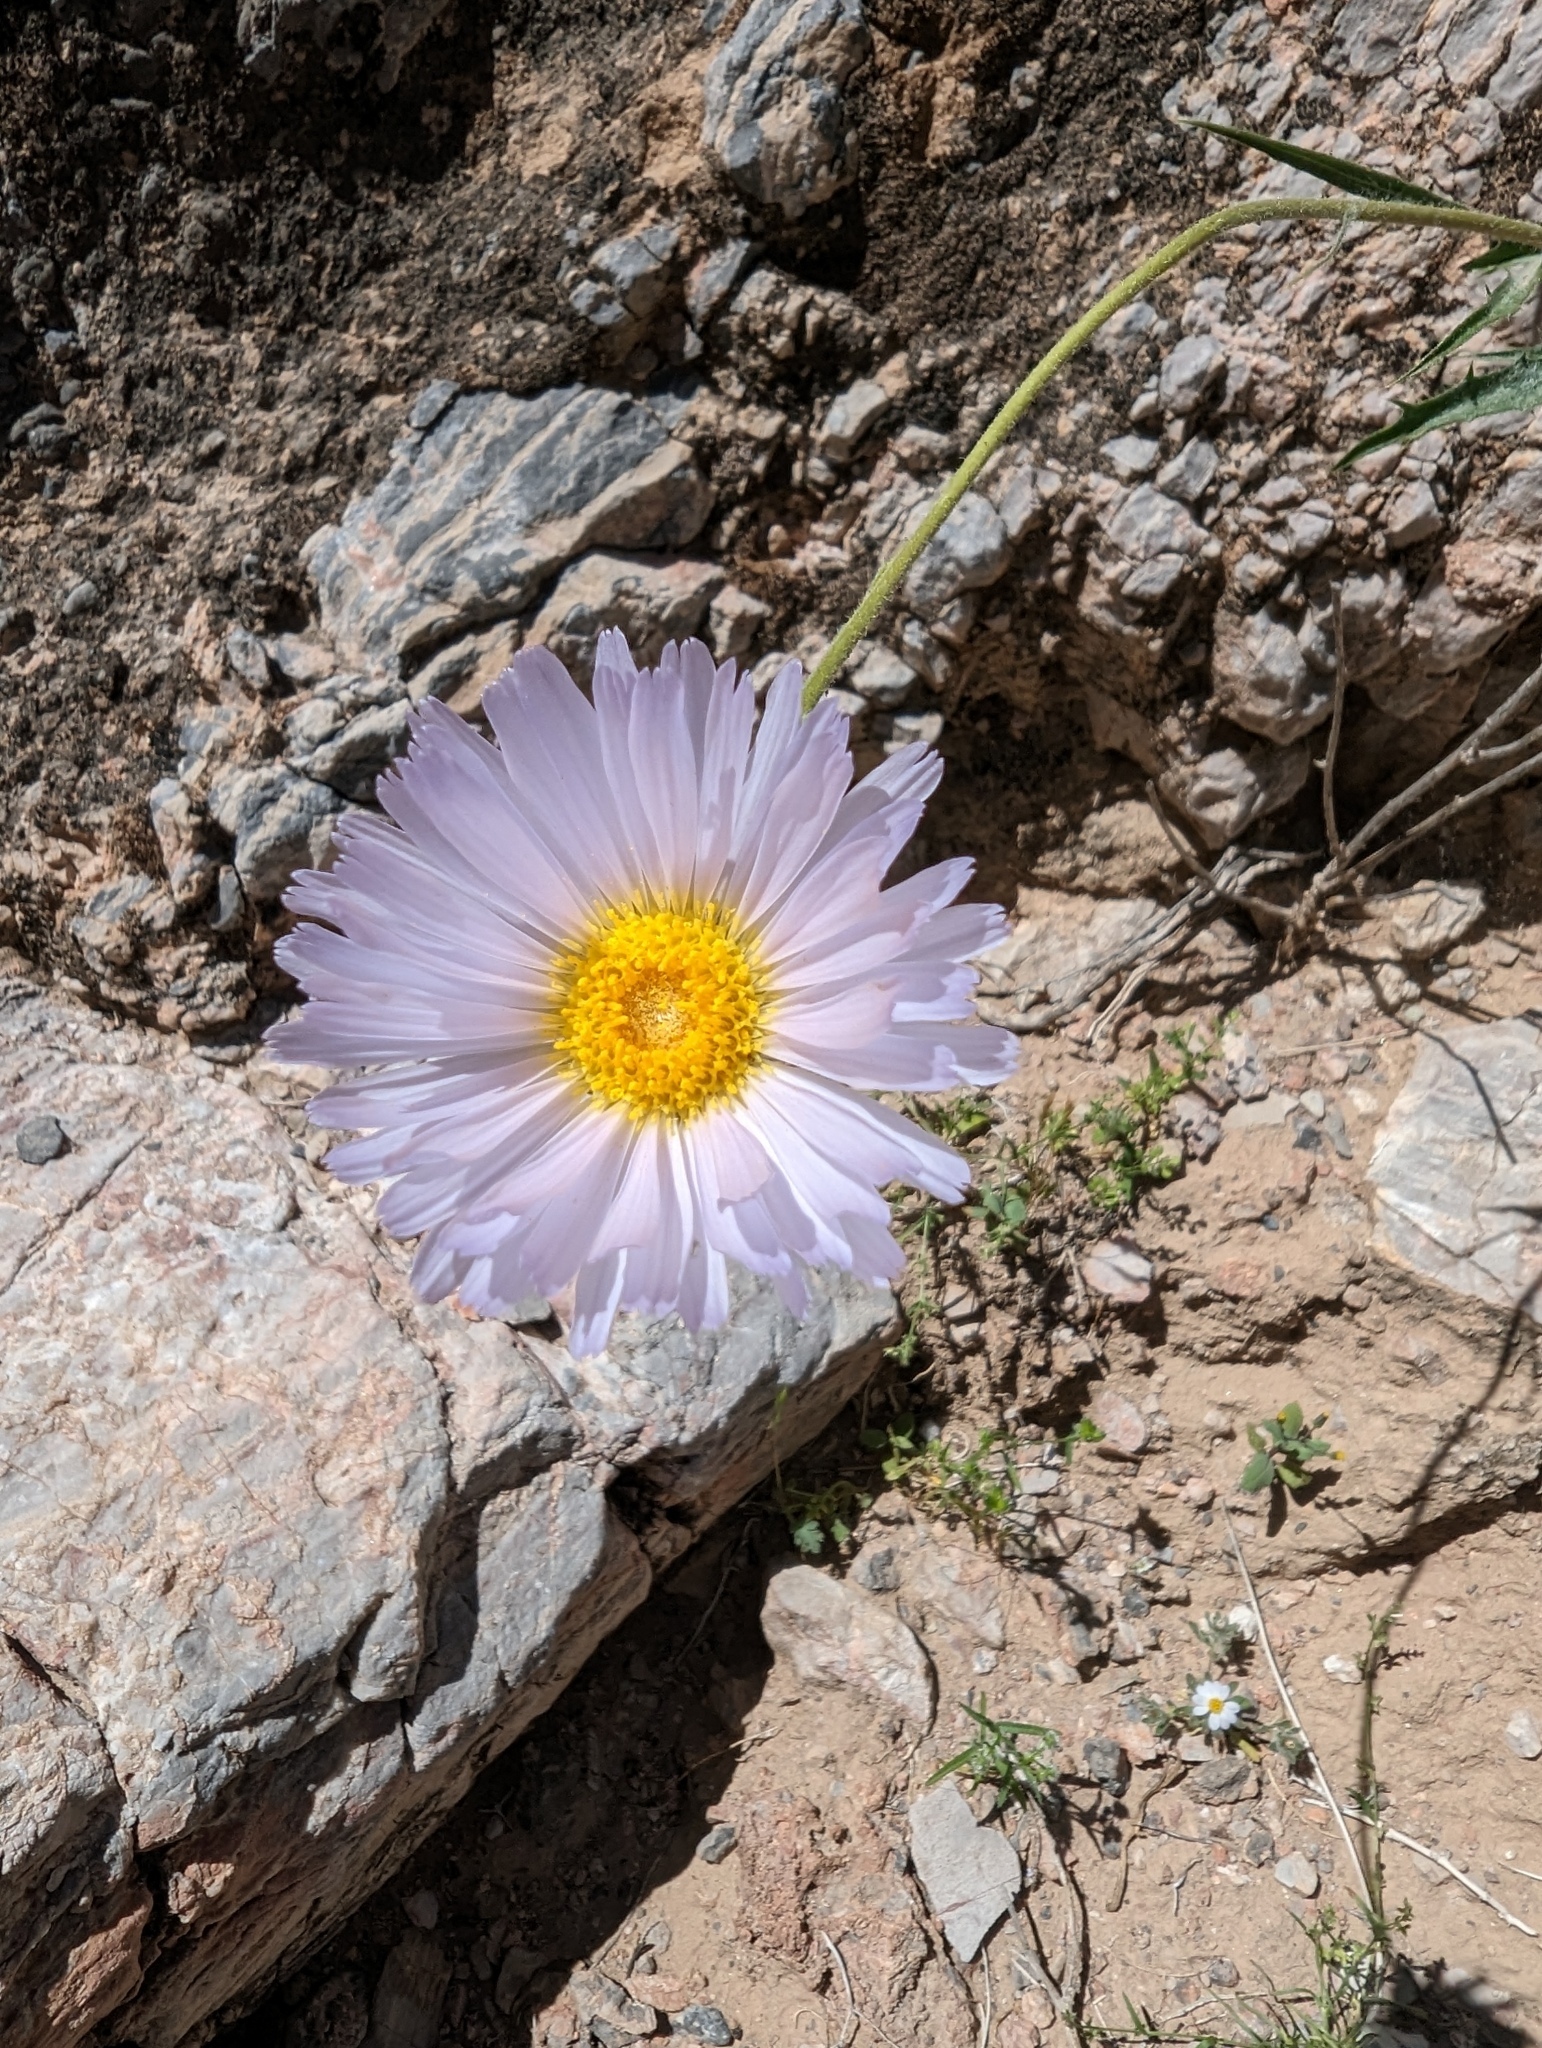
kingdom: Plantae
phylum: Tracheophyta
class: Magnoliopsida
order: Asterales
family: Asteraceae
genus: Xylorhiza
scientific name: Xylorhiza tortifolia
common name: Hurt-leaf woody-aster
